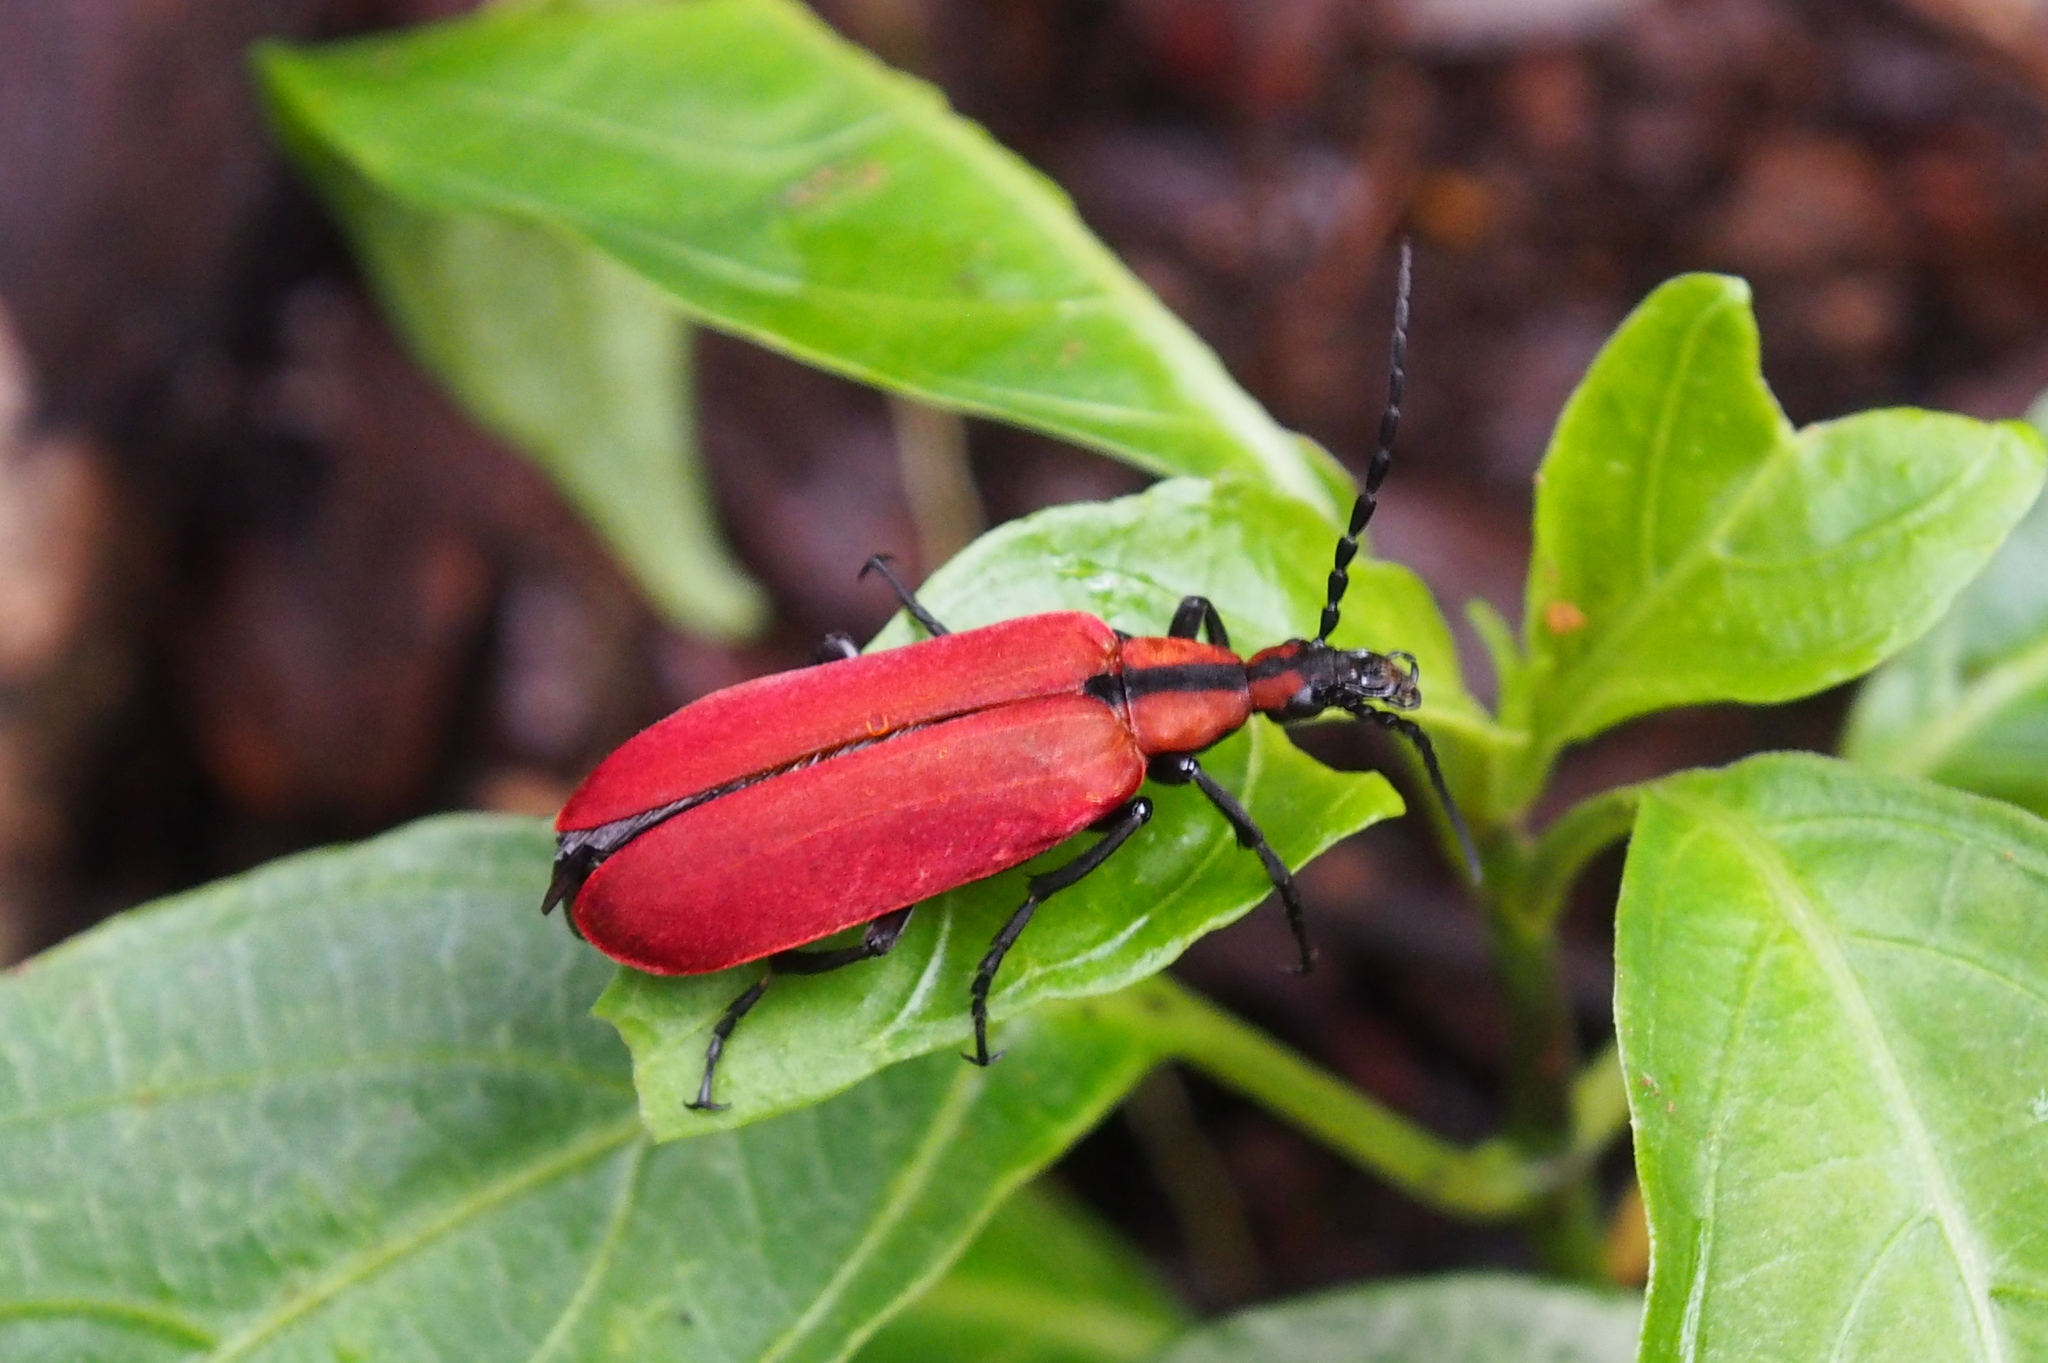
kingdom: Animalia
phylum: Arthropoda
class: Insecta
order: Coleoptera
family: Meloidae
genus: Zonitis
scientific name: Zonitis
